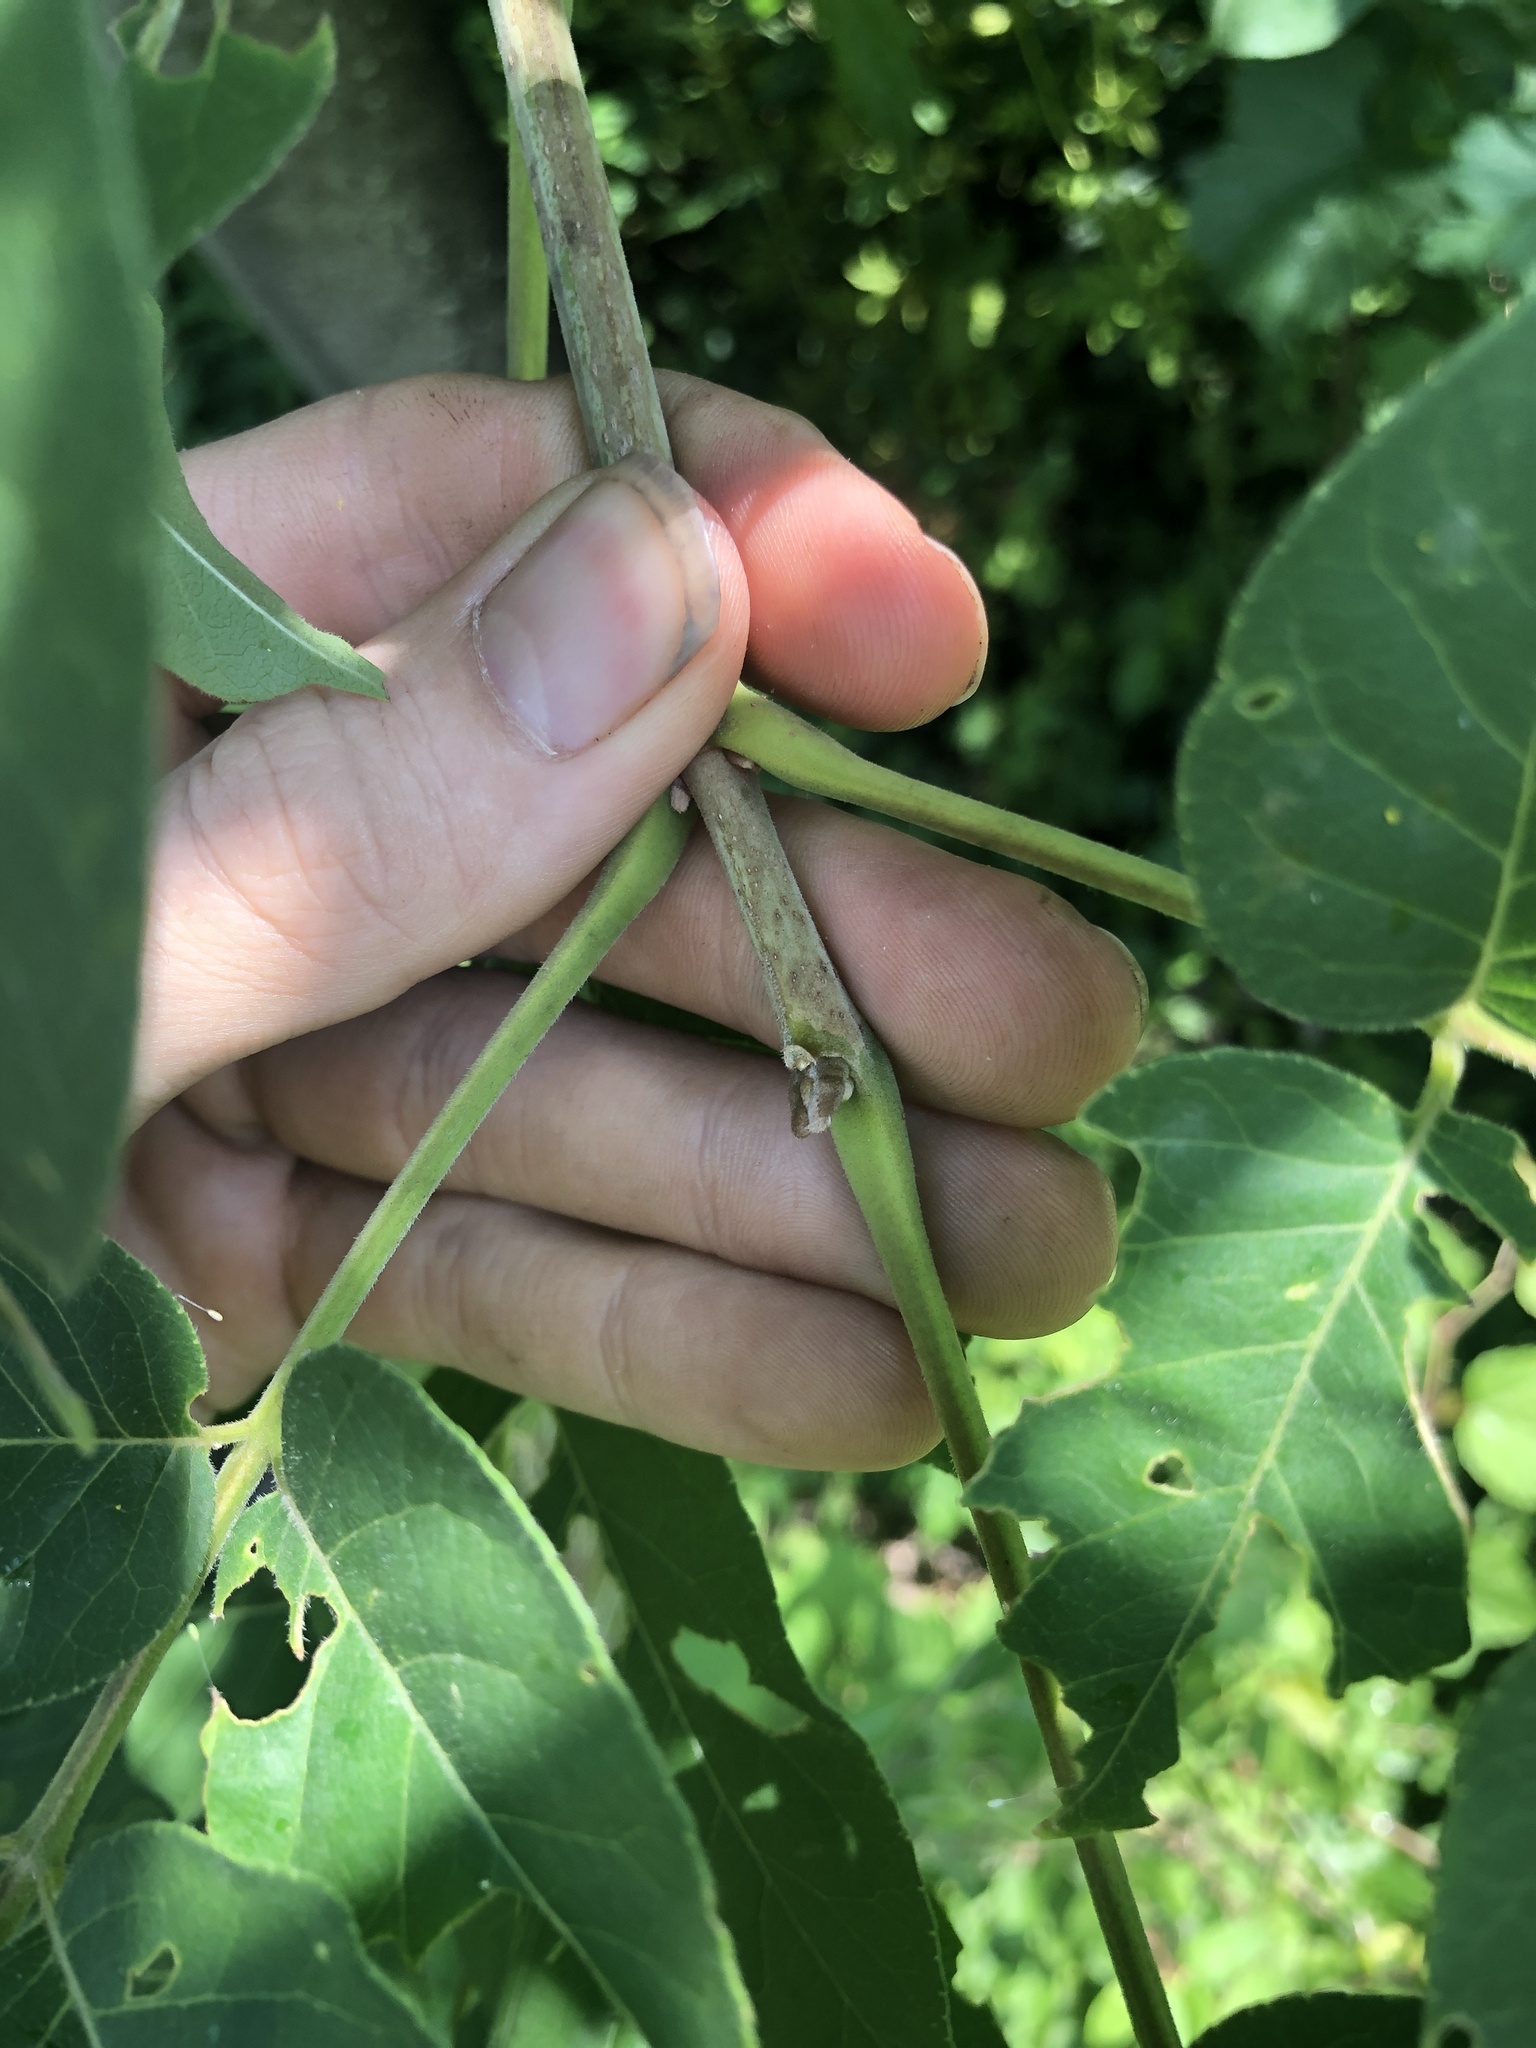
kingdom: Plantae
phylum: Tracheophyta
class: Magnoliopsida
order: Sapindales
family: Rutaceae
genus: Tetradium
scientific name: Tetradium daniellii
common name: Bee-bee tree
